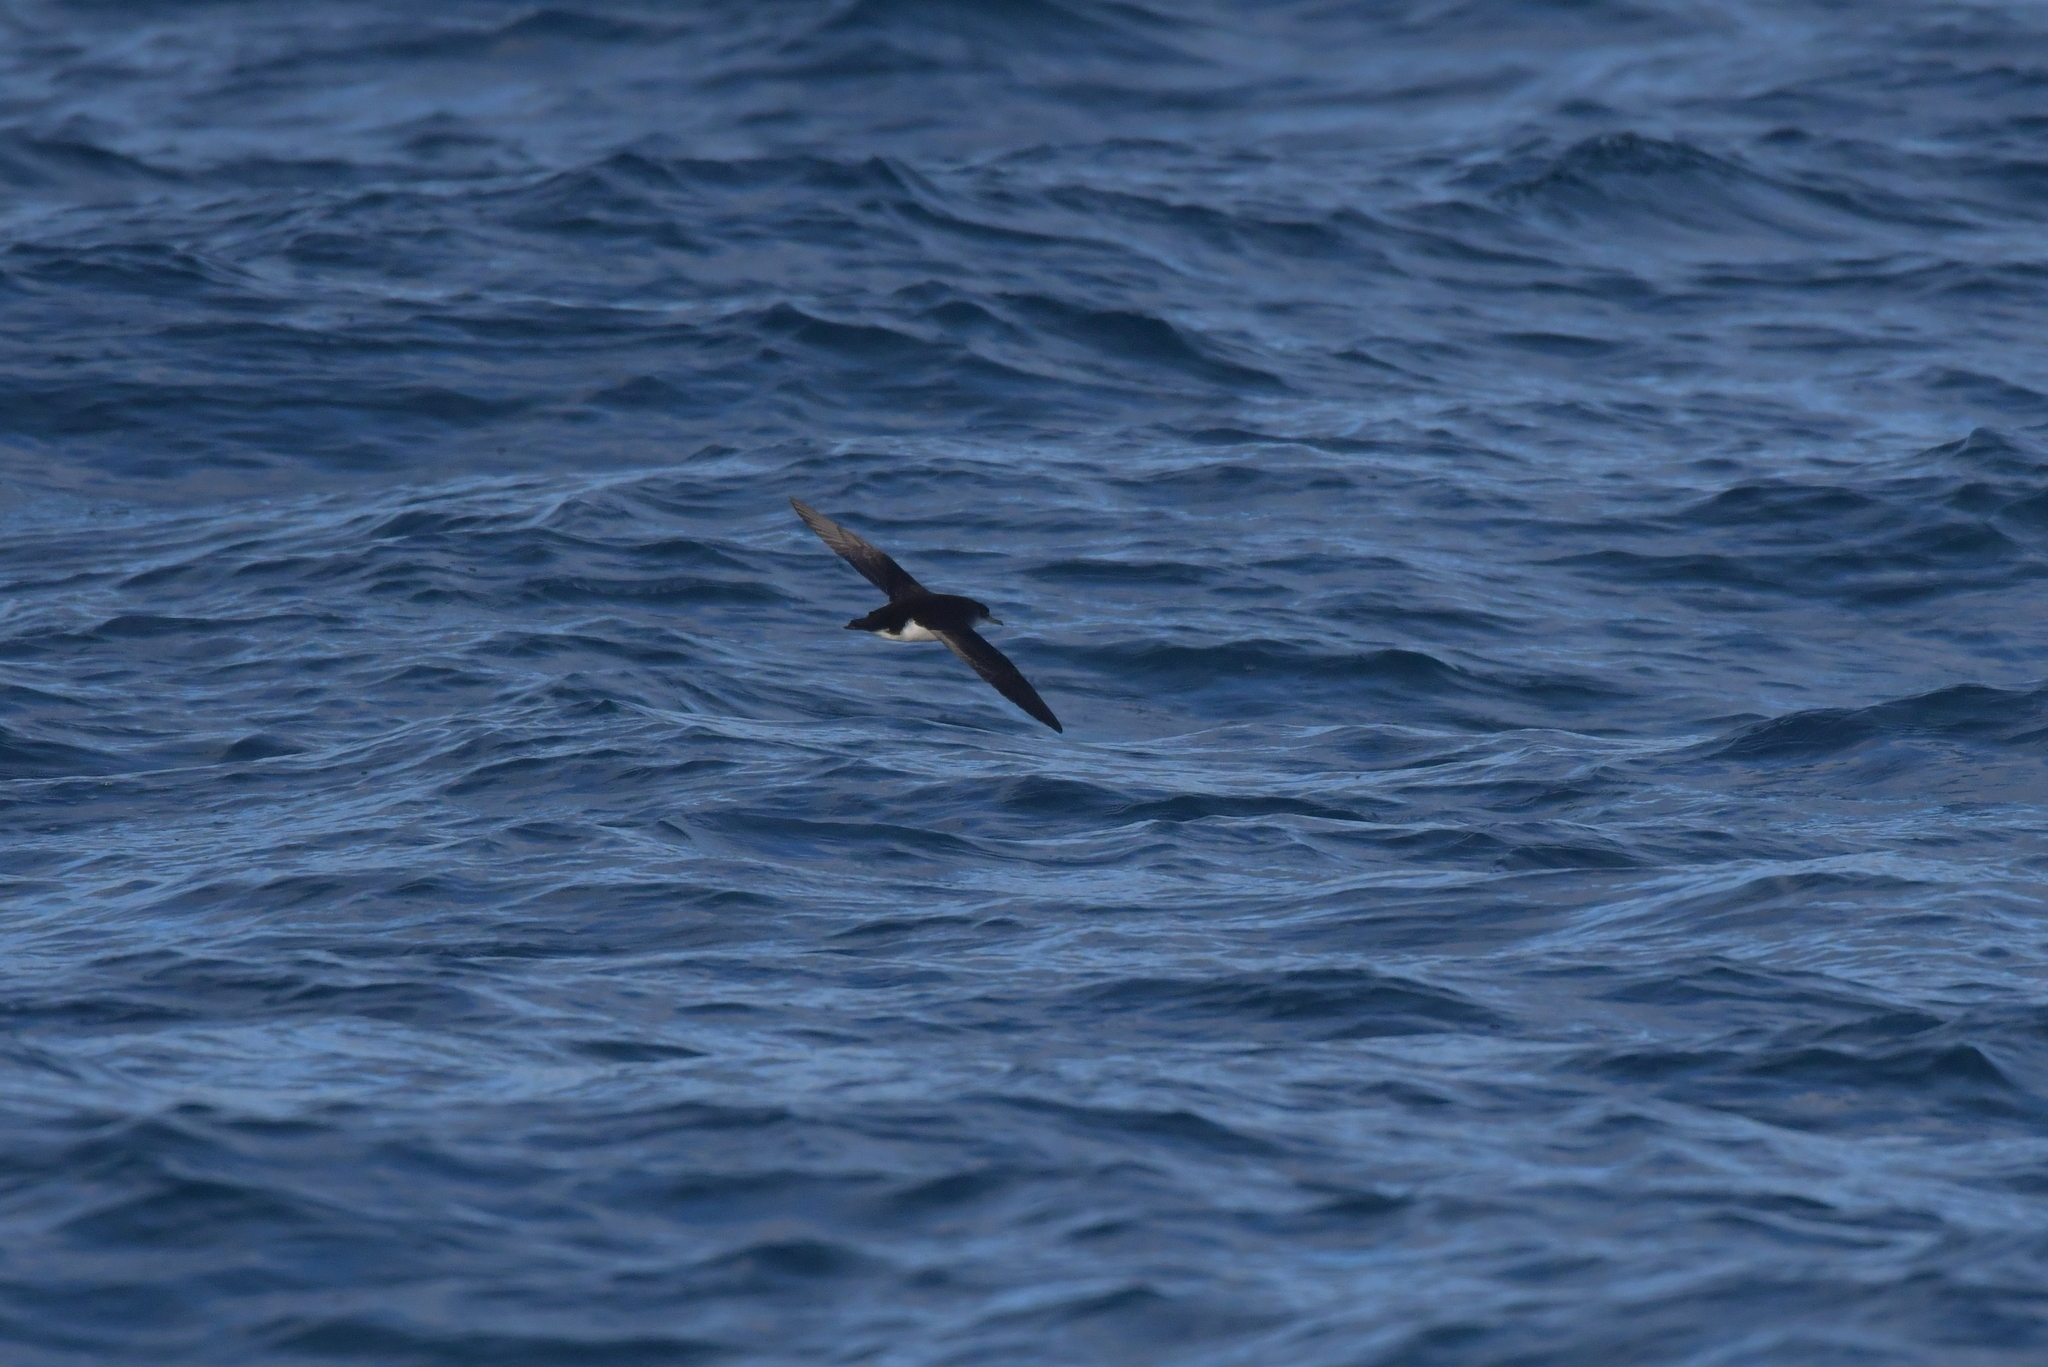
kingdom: Animalia
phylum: Chordata
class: Aves
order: Procellariiformes
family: Procellariidae
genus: Puffinus
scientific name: Puffinus gavia
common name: Fluttering shearwater
